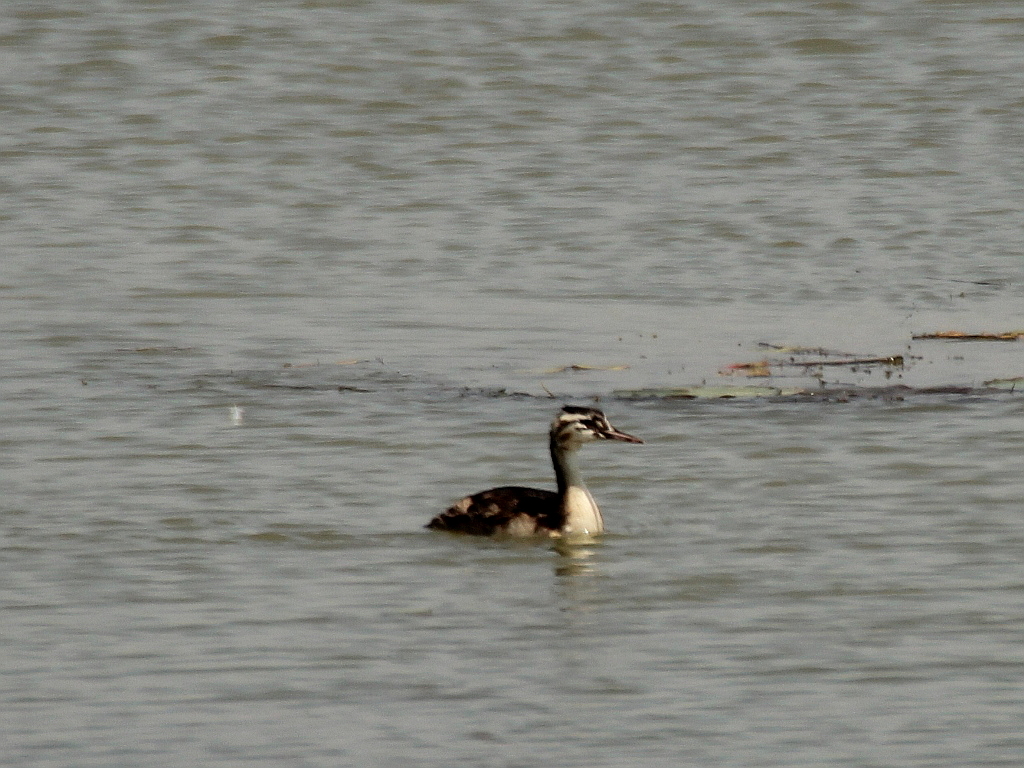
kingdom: Animalia
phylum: Chordata
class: Aves
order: Podicipediformes
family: Podicipedidae
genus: Podiceps
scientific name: Podiceps cristatus
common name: Great crested grebe
